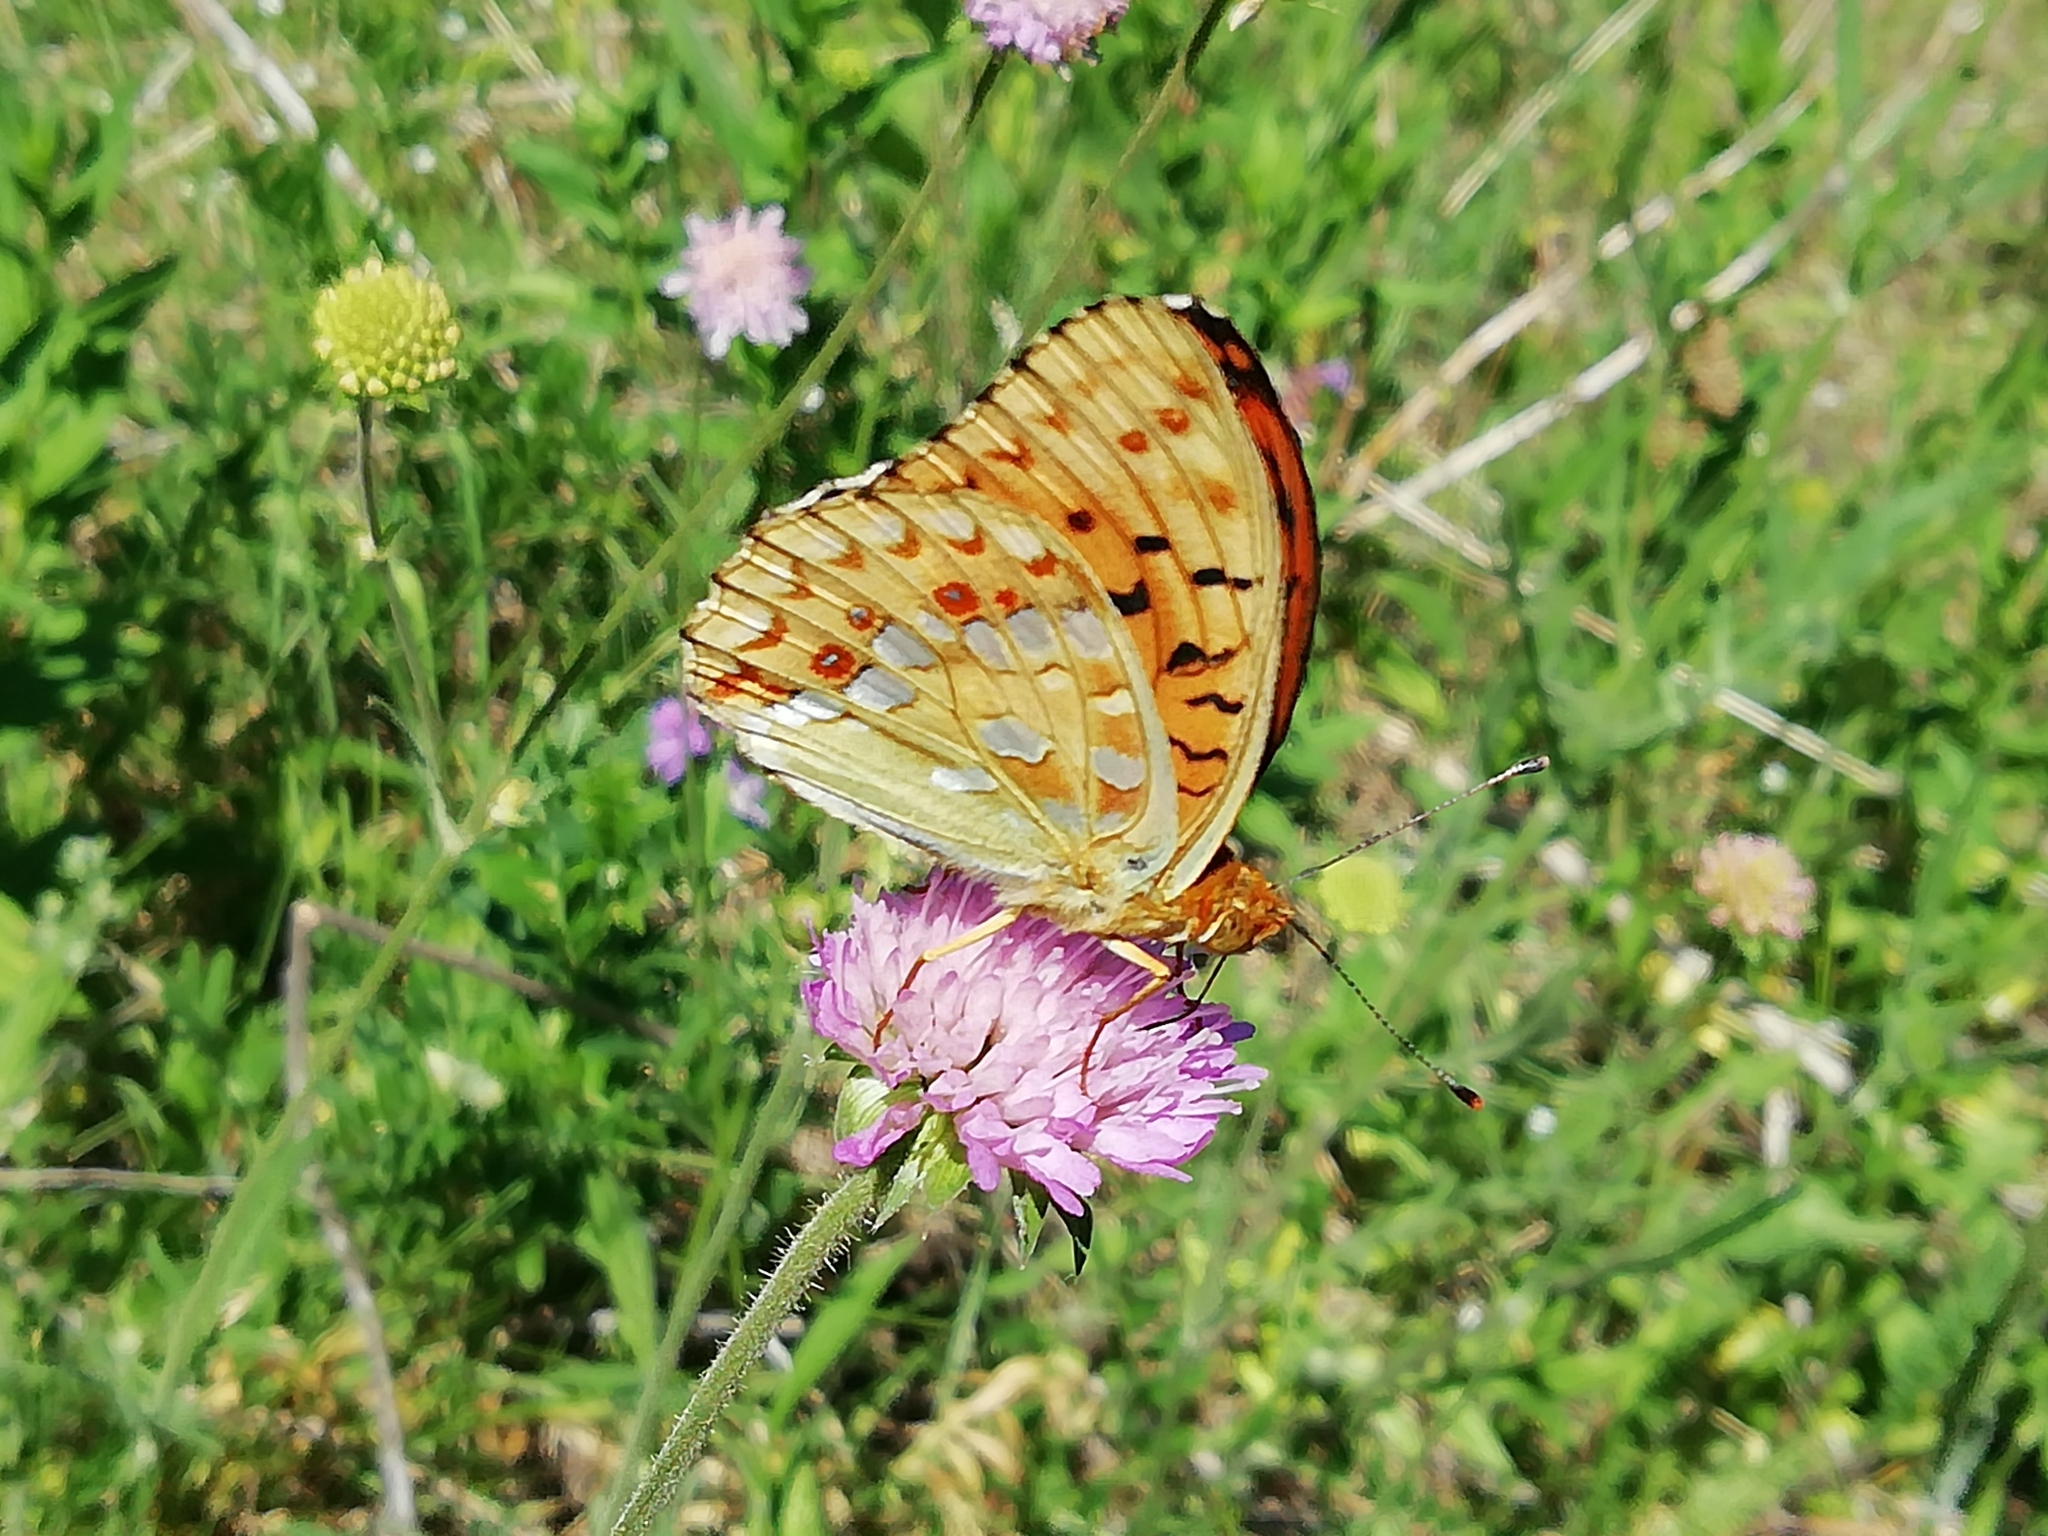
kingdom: Animalia
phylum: Arthropoda
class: Insecta
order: Lepidoptera
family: Nymphalidae
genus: Fabriciana
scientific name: Fabriciana adippe
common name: High brown fritillary
